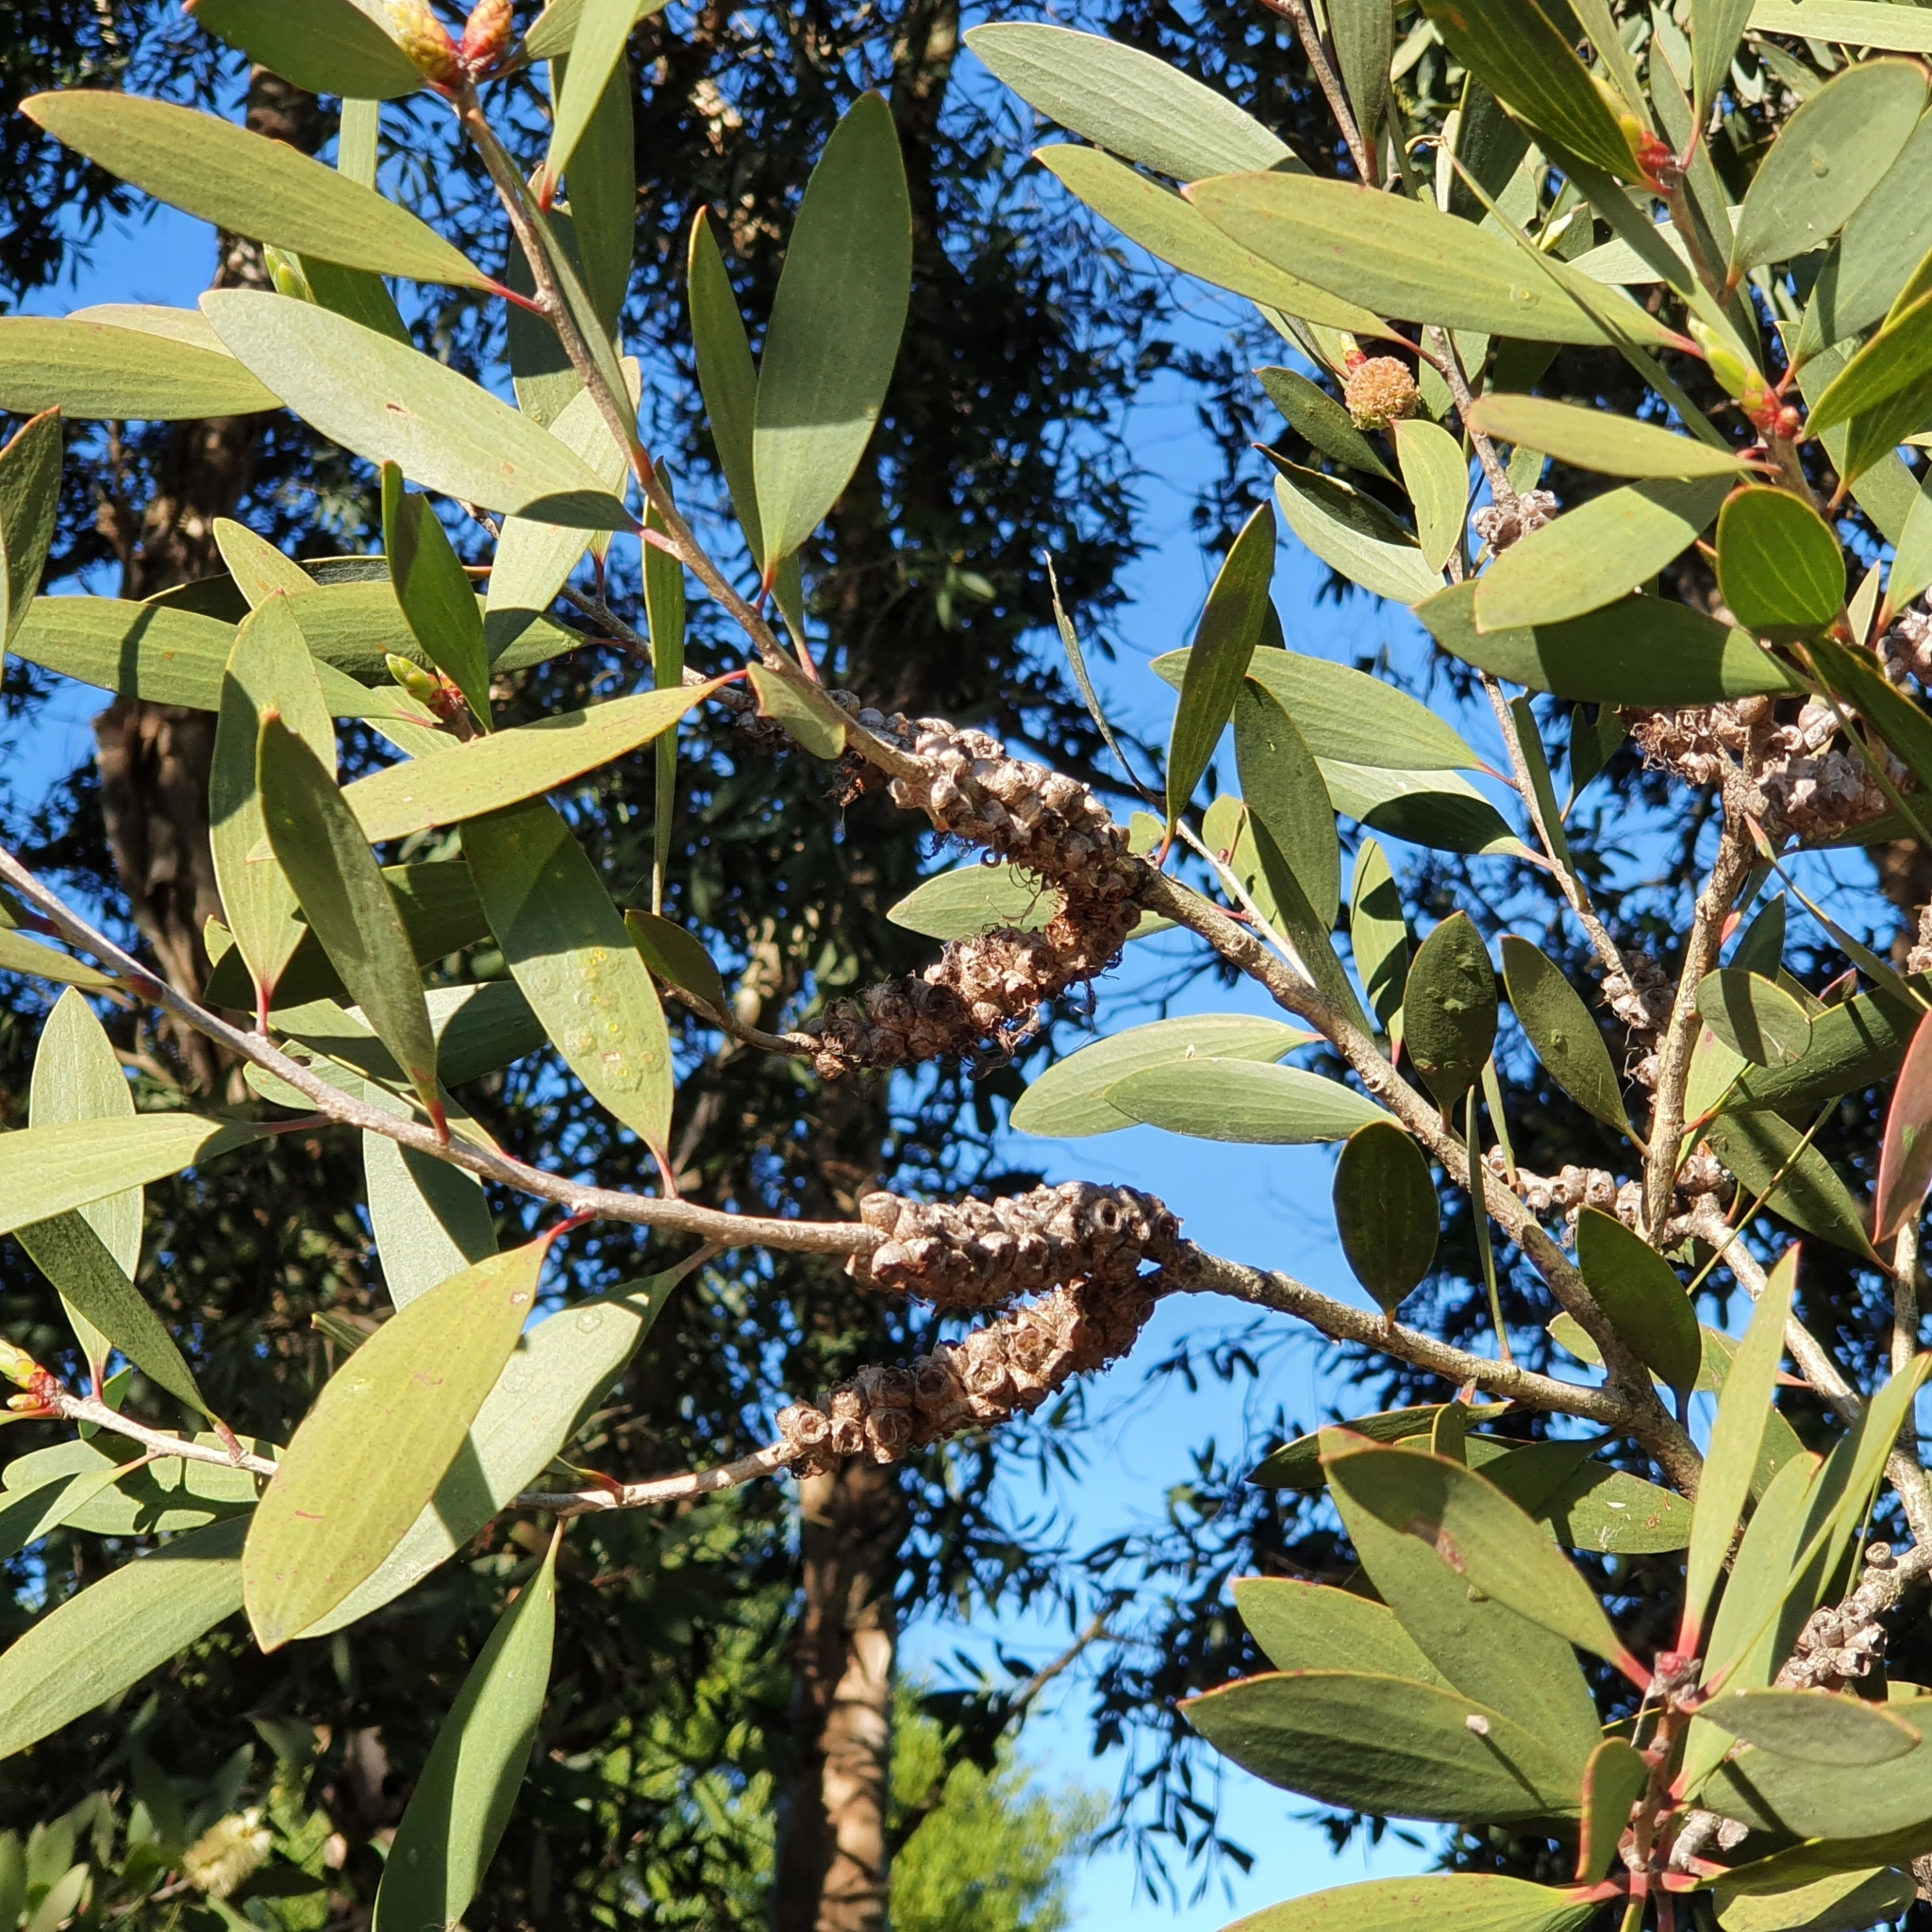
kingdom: Plantae
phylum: Tracheophyta
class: Magnoliopsida
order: Myrtales
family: Myrtaceae
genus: Melaleuca
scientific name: Melaleuca quinquenervia
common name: Punktree
